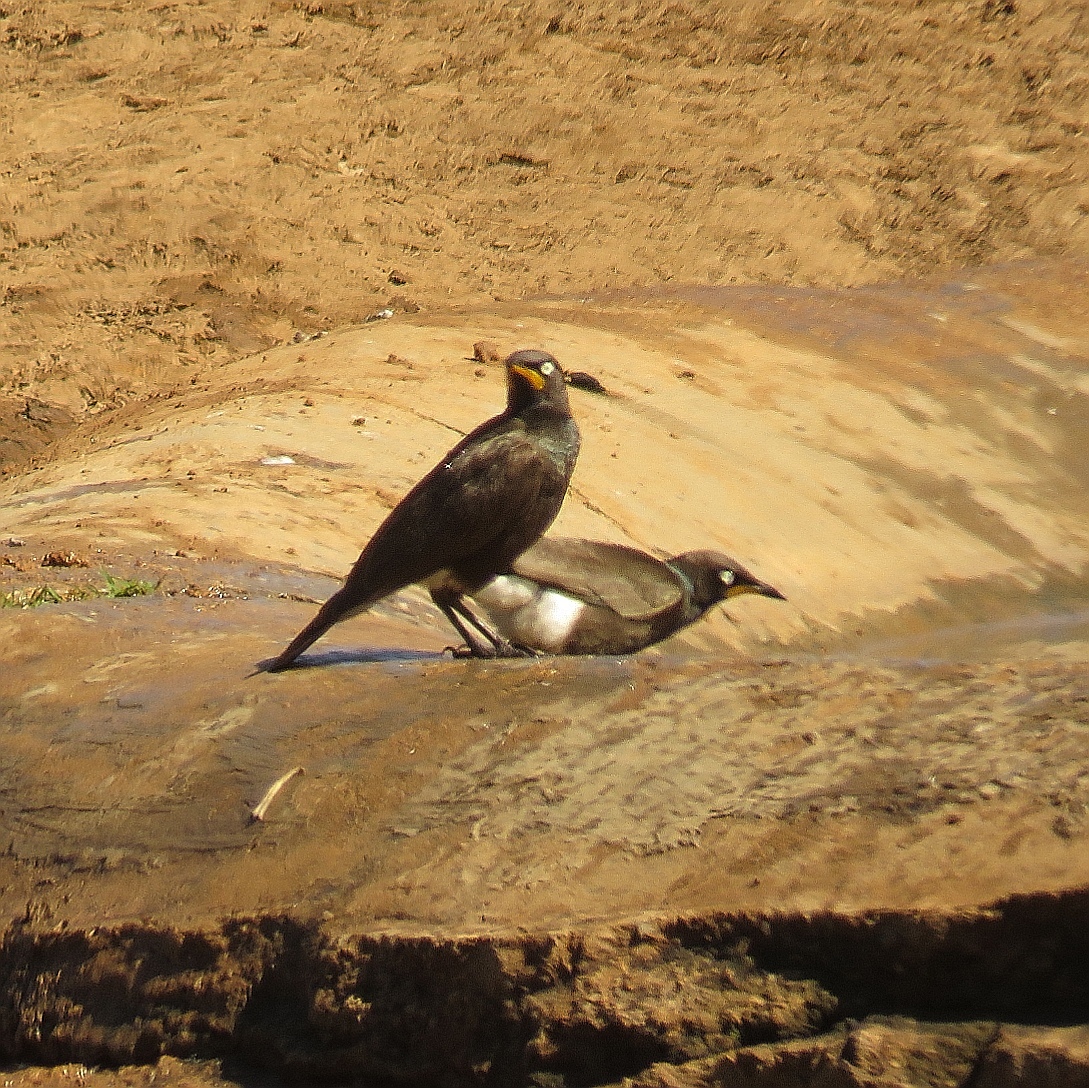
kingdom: Animalia
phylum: Chordata
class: Aves
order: Passeriformes
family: Sturnidae
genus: Lamprotornis
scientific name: Lamprotornis bicolor
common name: Pied starling
